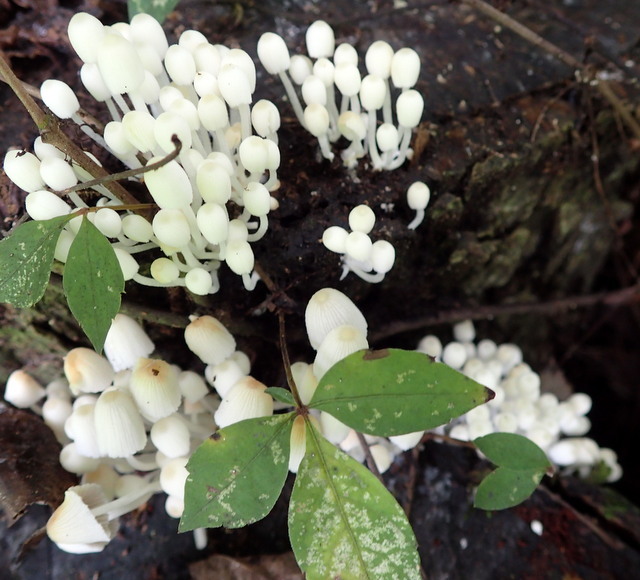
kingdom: Fungi
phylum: Basidiomycota
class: Agaricomycetes
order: Agaricales
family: Psathyrellaceae
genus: Coprinellus
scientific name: Coprinellus disseminatus
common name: Fairies' bonnets
